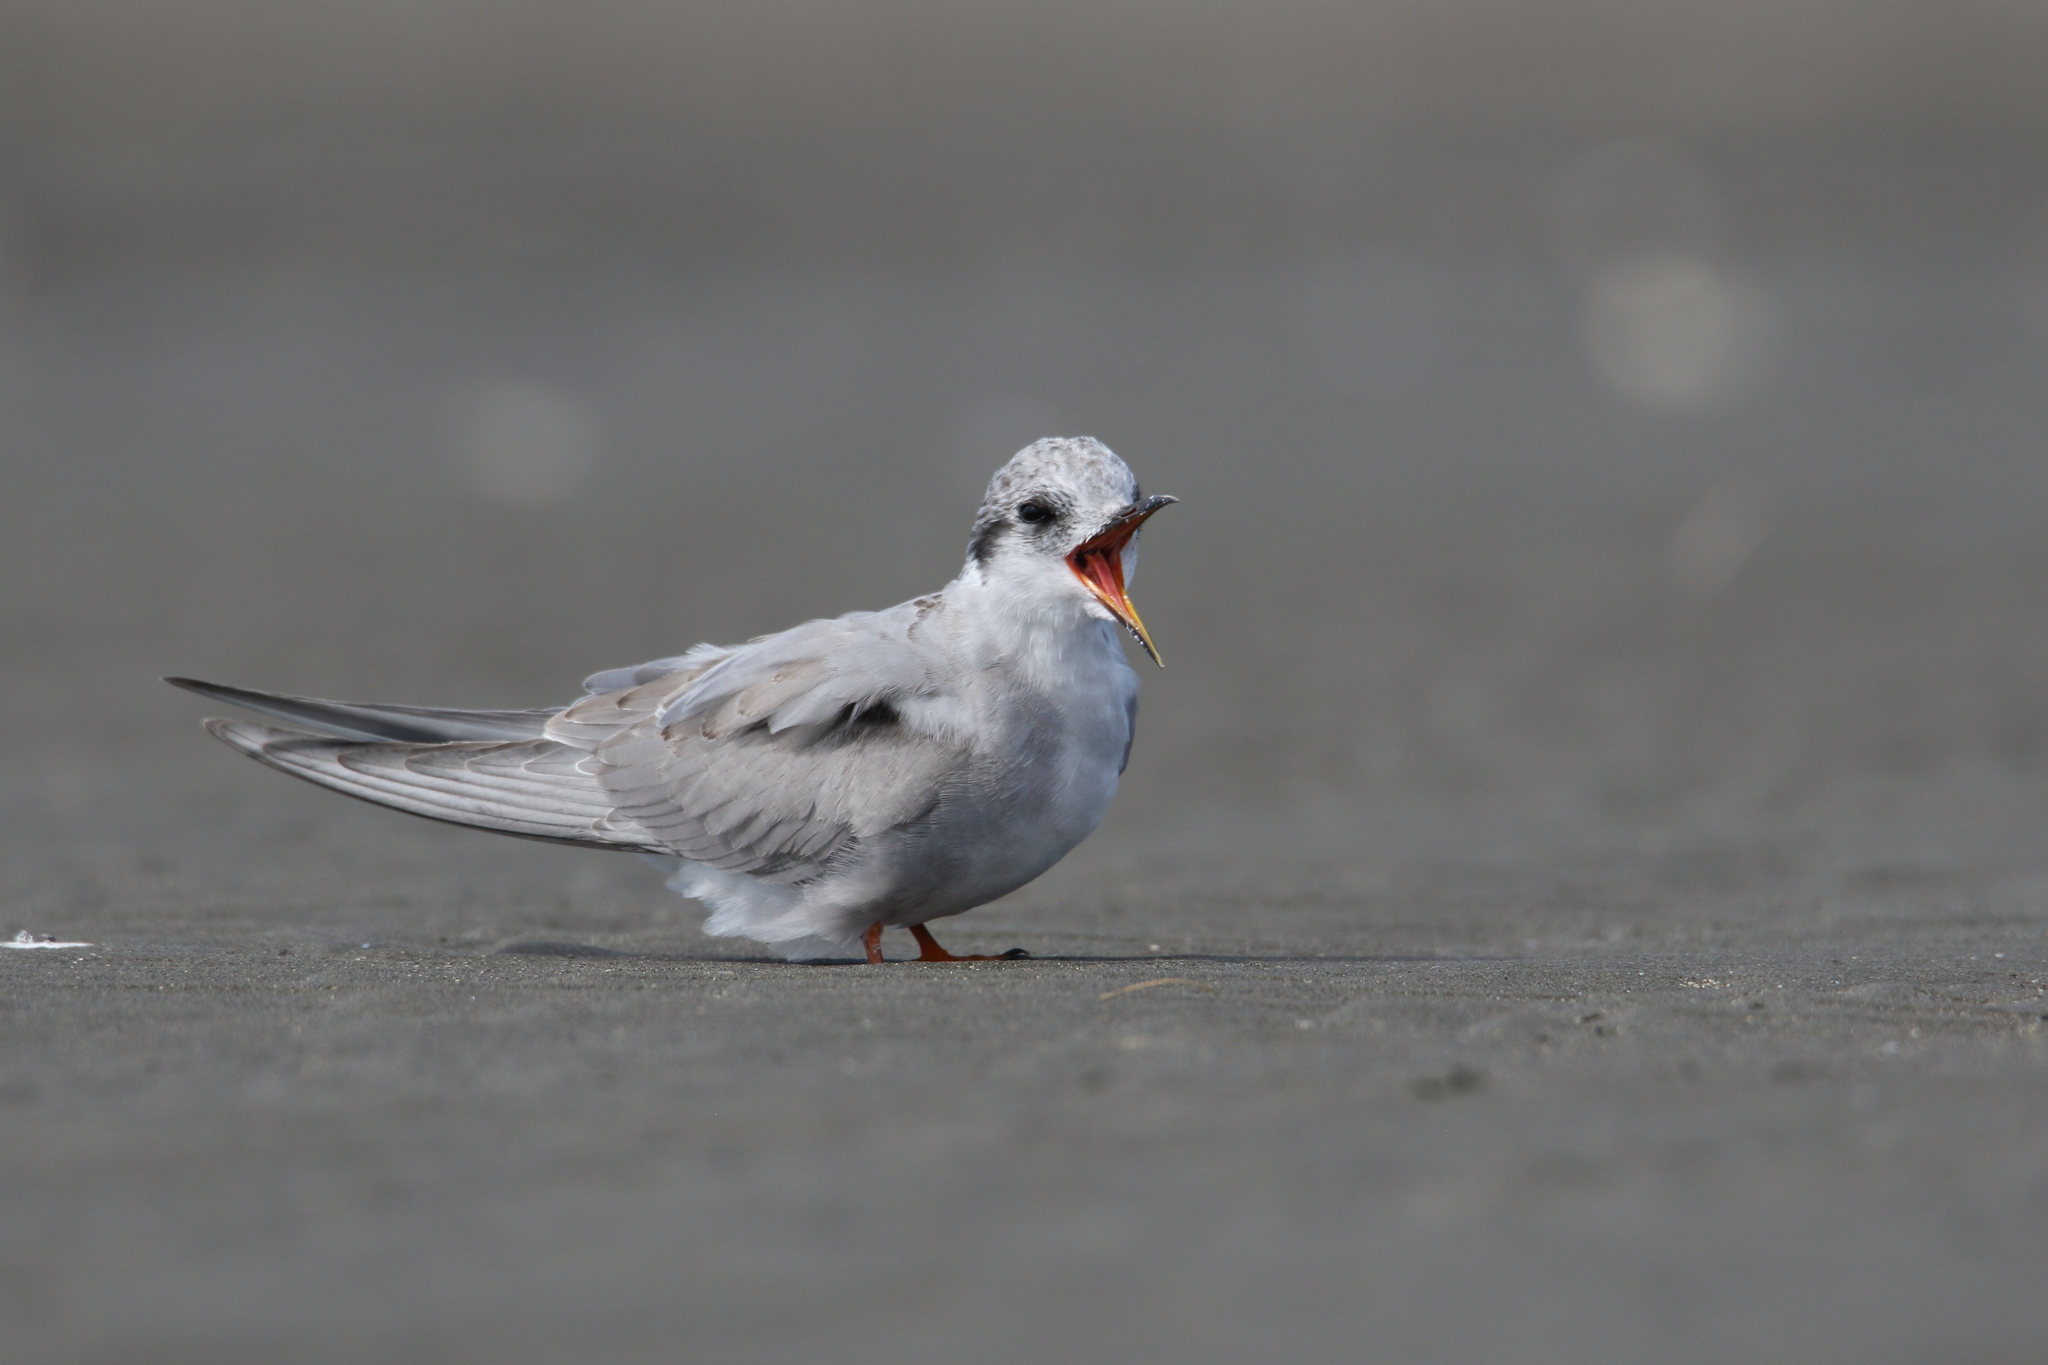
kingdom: Animalia
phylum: Chordata
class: Aves
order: Charadriiformes
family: Laridae
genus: Chlidonias
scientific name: Chlidonias albostriatus
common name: Black-fronted tern
